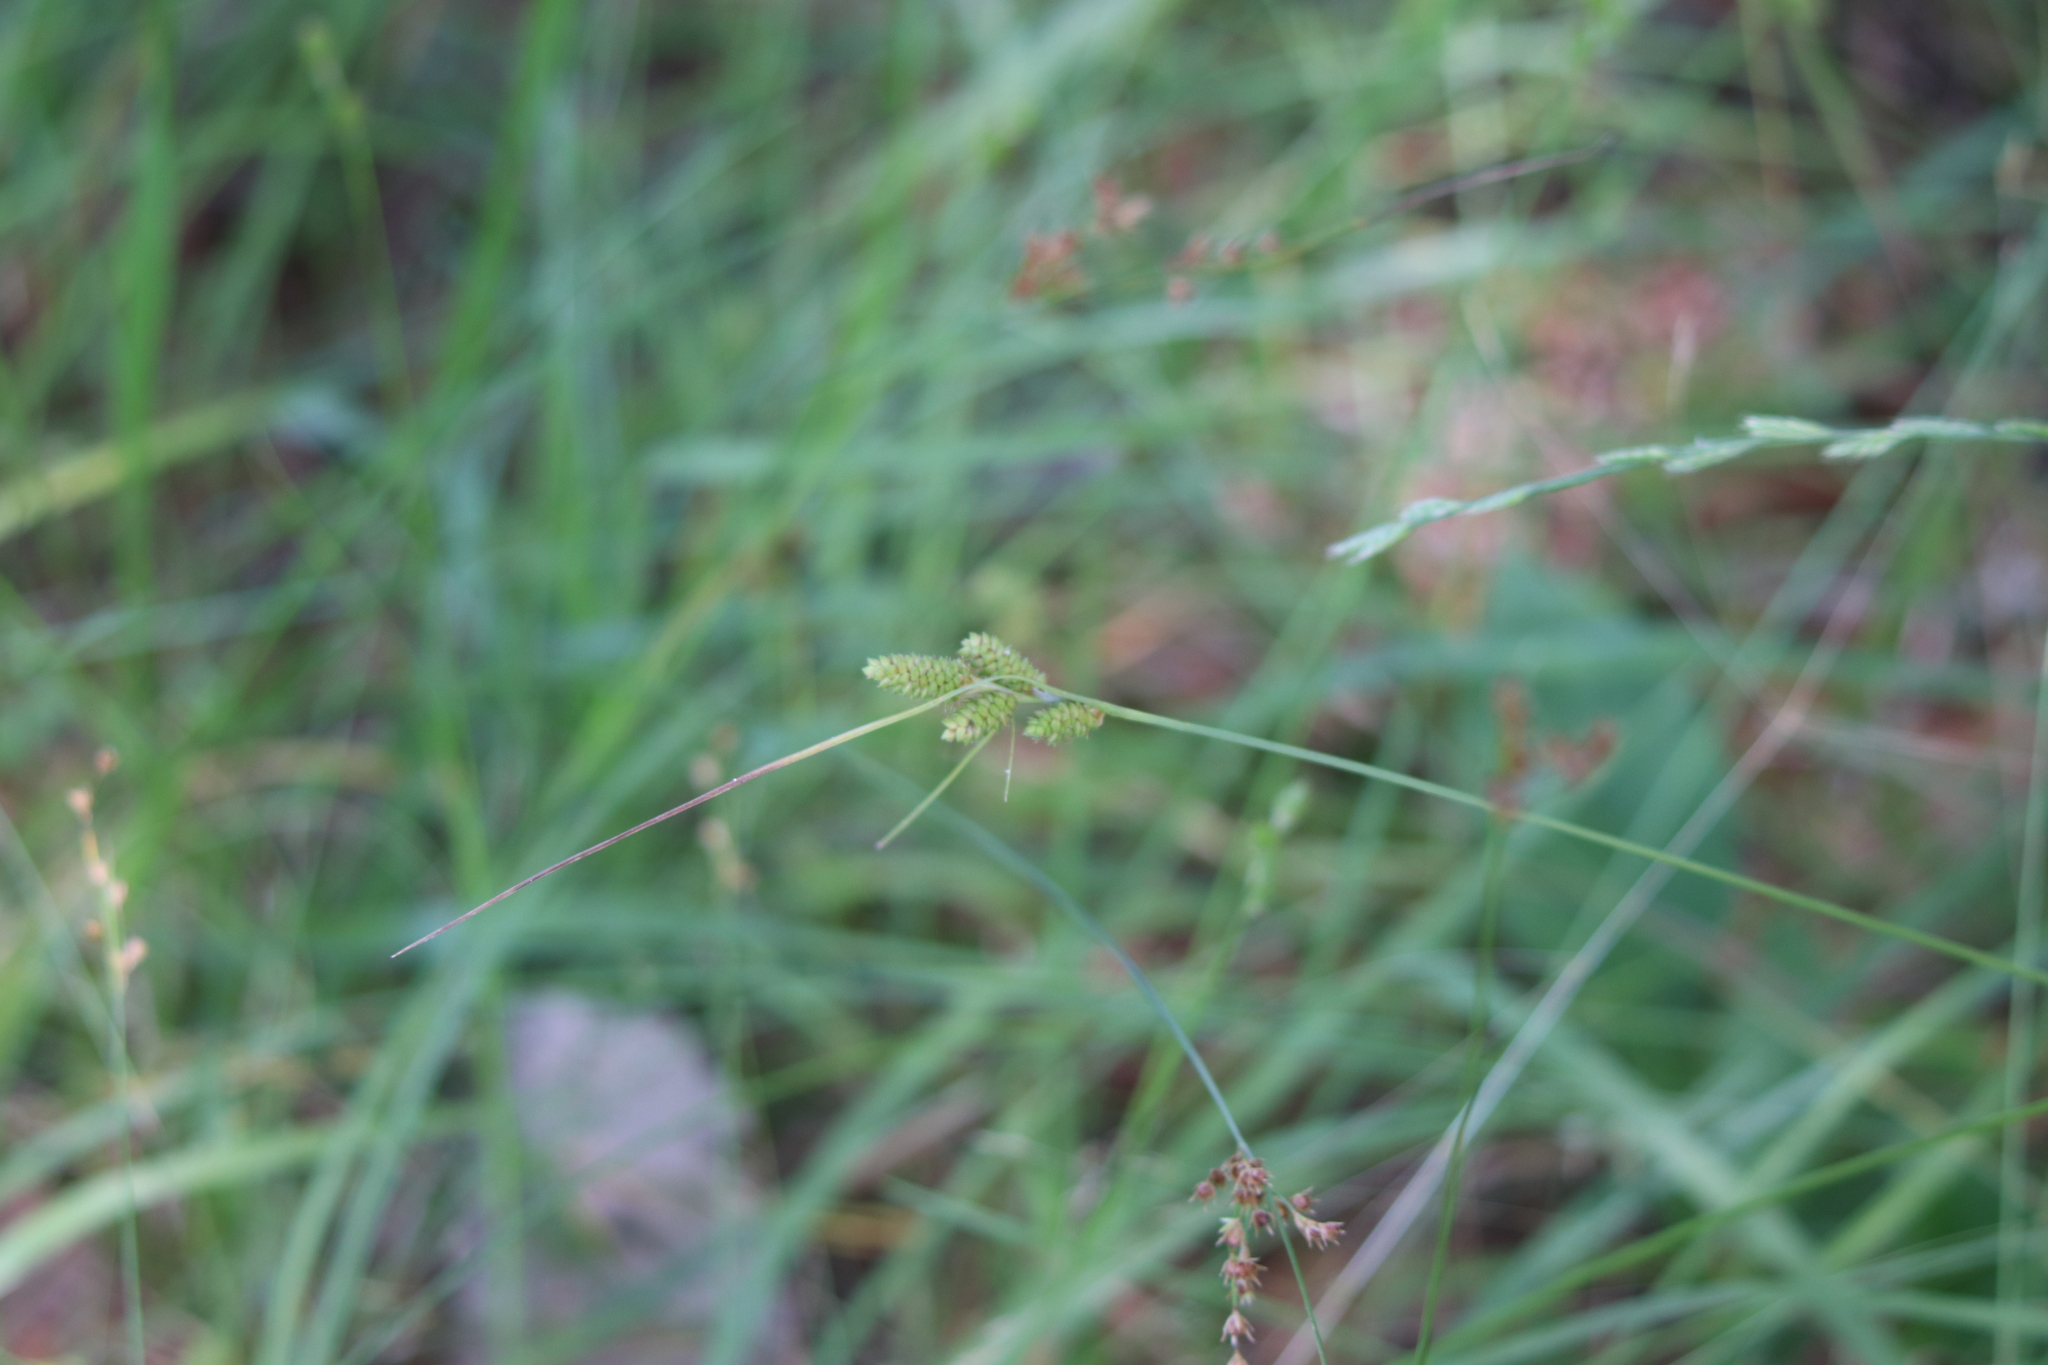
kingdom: Plantae
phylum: Tracheophyta
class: Liliopsida
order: Poales
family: Cyperaceae
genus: Carex
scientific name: Carex complanata
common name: Hirsute sedge
